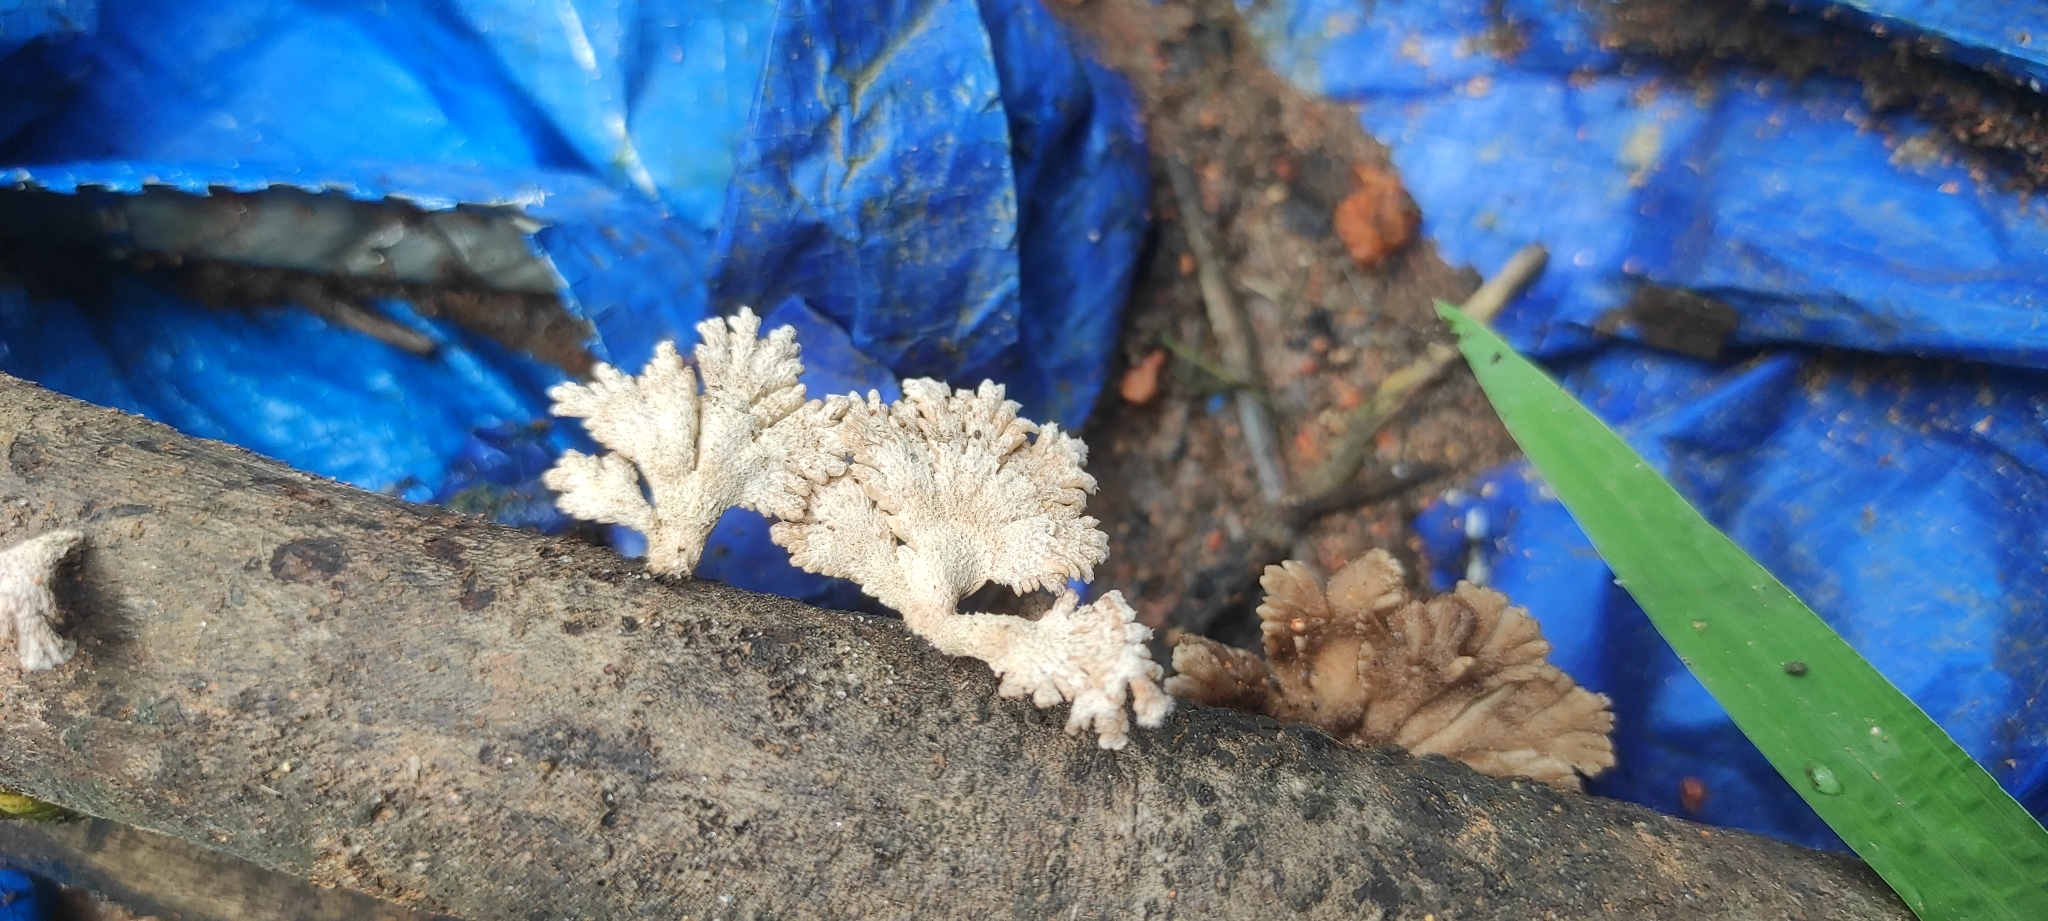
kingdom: Fungi
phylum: Basidiomycota
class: Agaricomycetes
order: Agaricales
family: Schizophyllaceae
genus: Schizophyllum
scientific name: Schizophyllum commune
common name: Common porecrust
